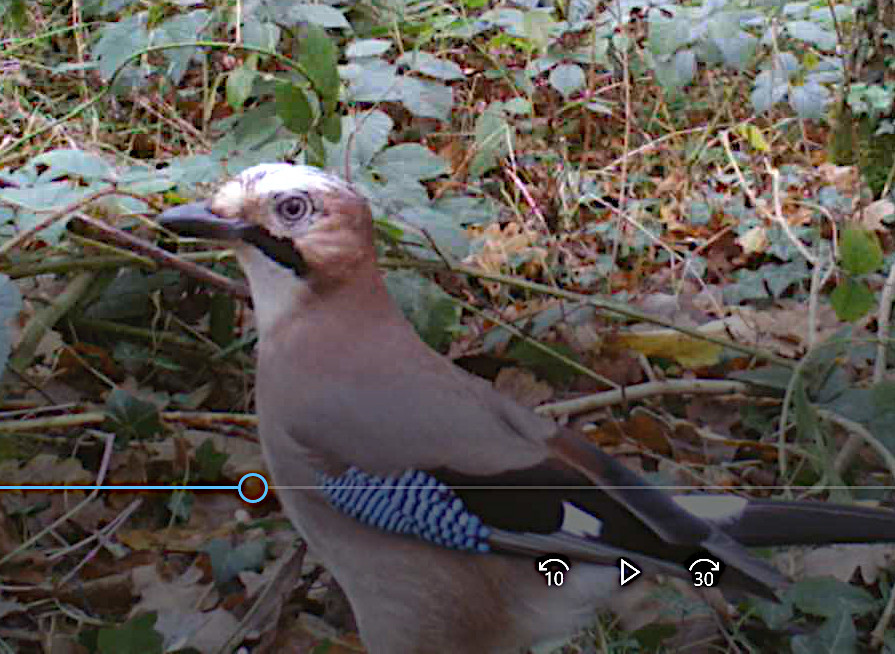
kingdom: Animalia
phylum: Chordata
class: Aves
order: Passeriformes
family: Corvidae
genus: Garrulus
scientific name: Garrulus glandarius
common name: Eurasian jay
